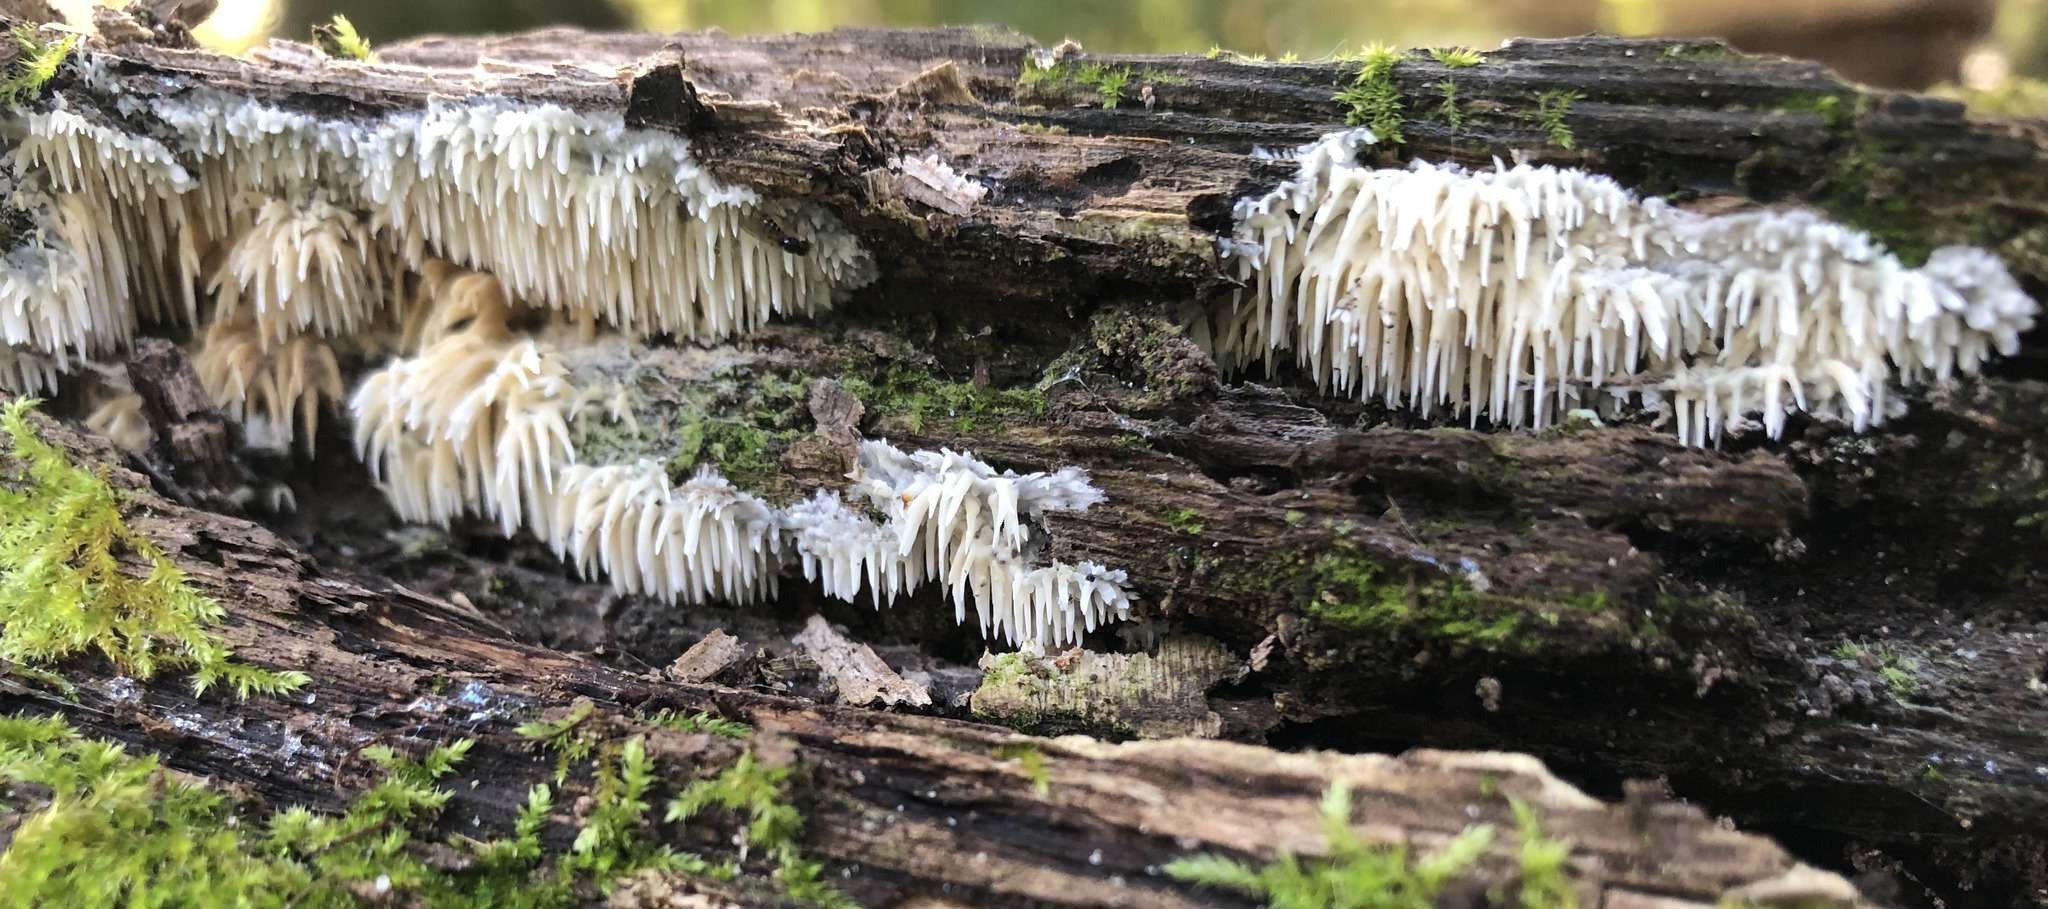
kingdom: Fungi
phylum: Basidiomycota
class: Agaricomycetes
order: Agaricales
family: Radulomycetaceae
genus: Radulomyces
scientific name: Radulomyces copelandii
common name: Asian beauty
